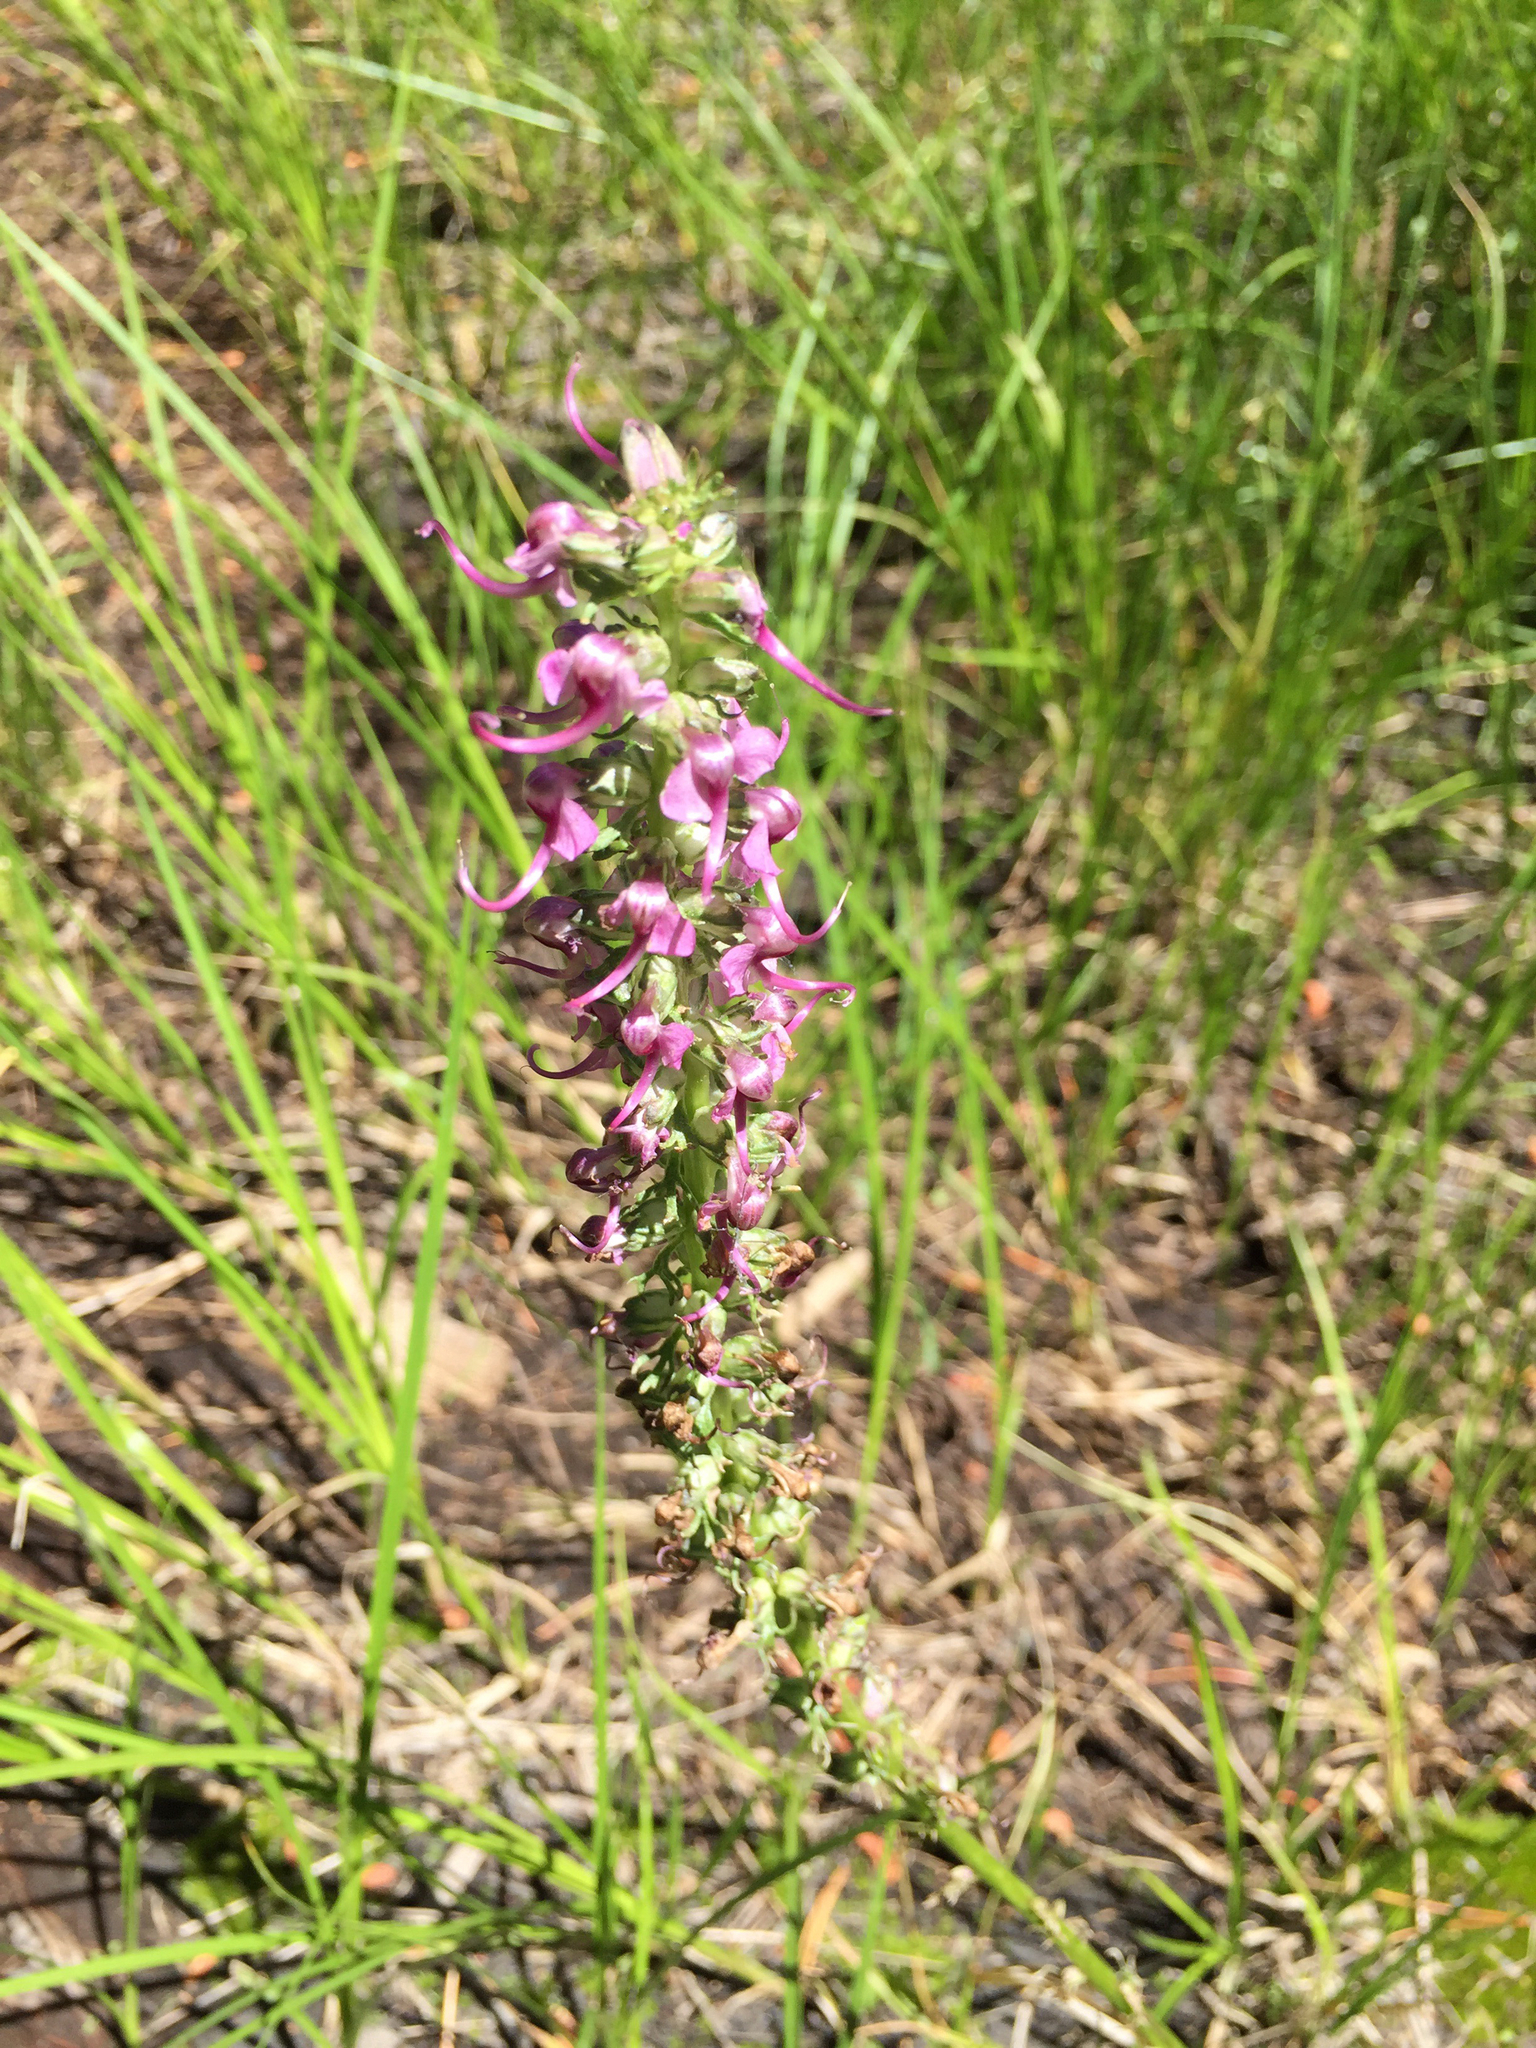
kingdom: Plantae
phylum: Tracheophyta
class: Magnoliopsida
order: Lamiales
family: Orobanchaceae
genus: Pedicularis
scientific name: Pedicularis groenlandica
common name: Elephant's-head
